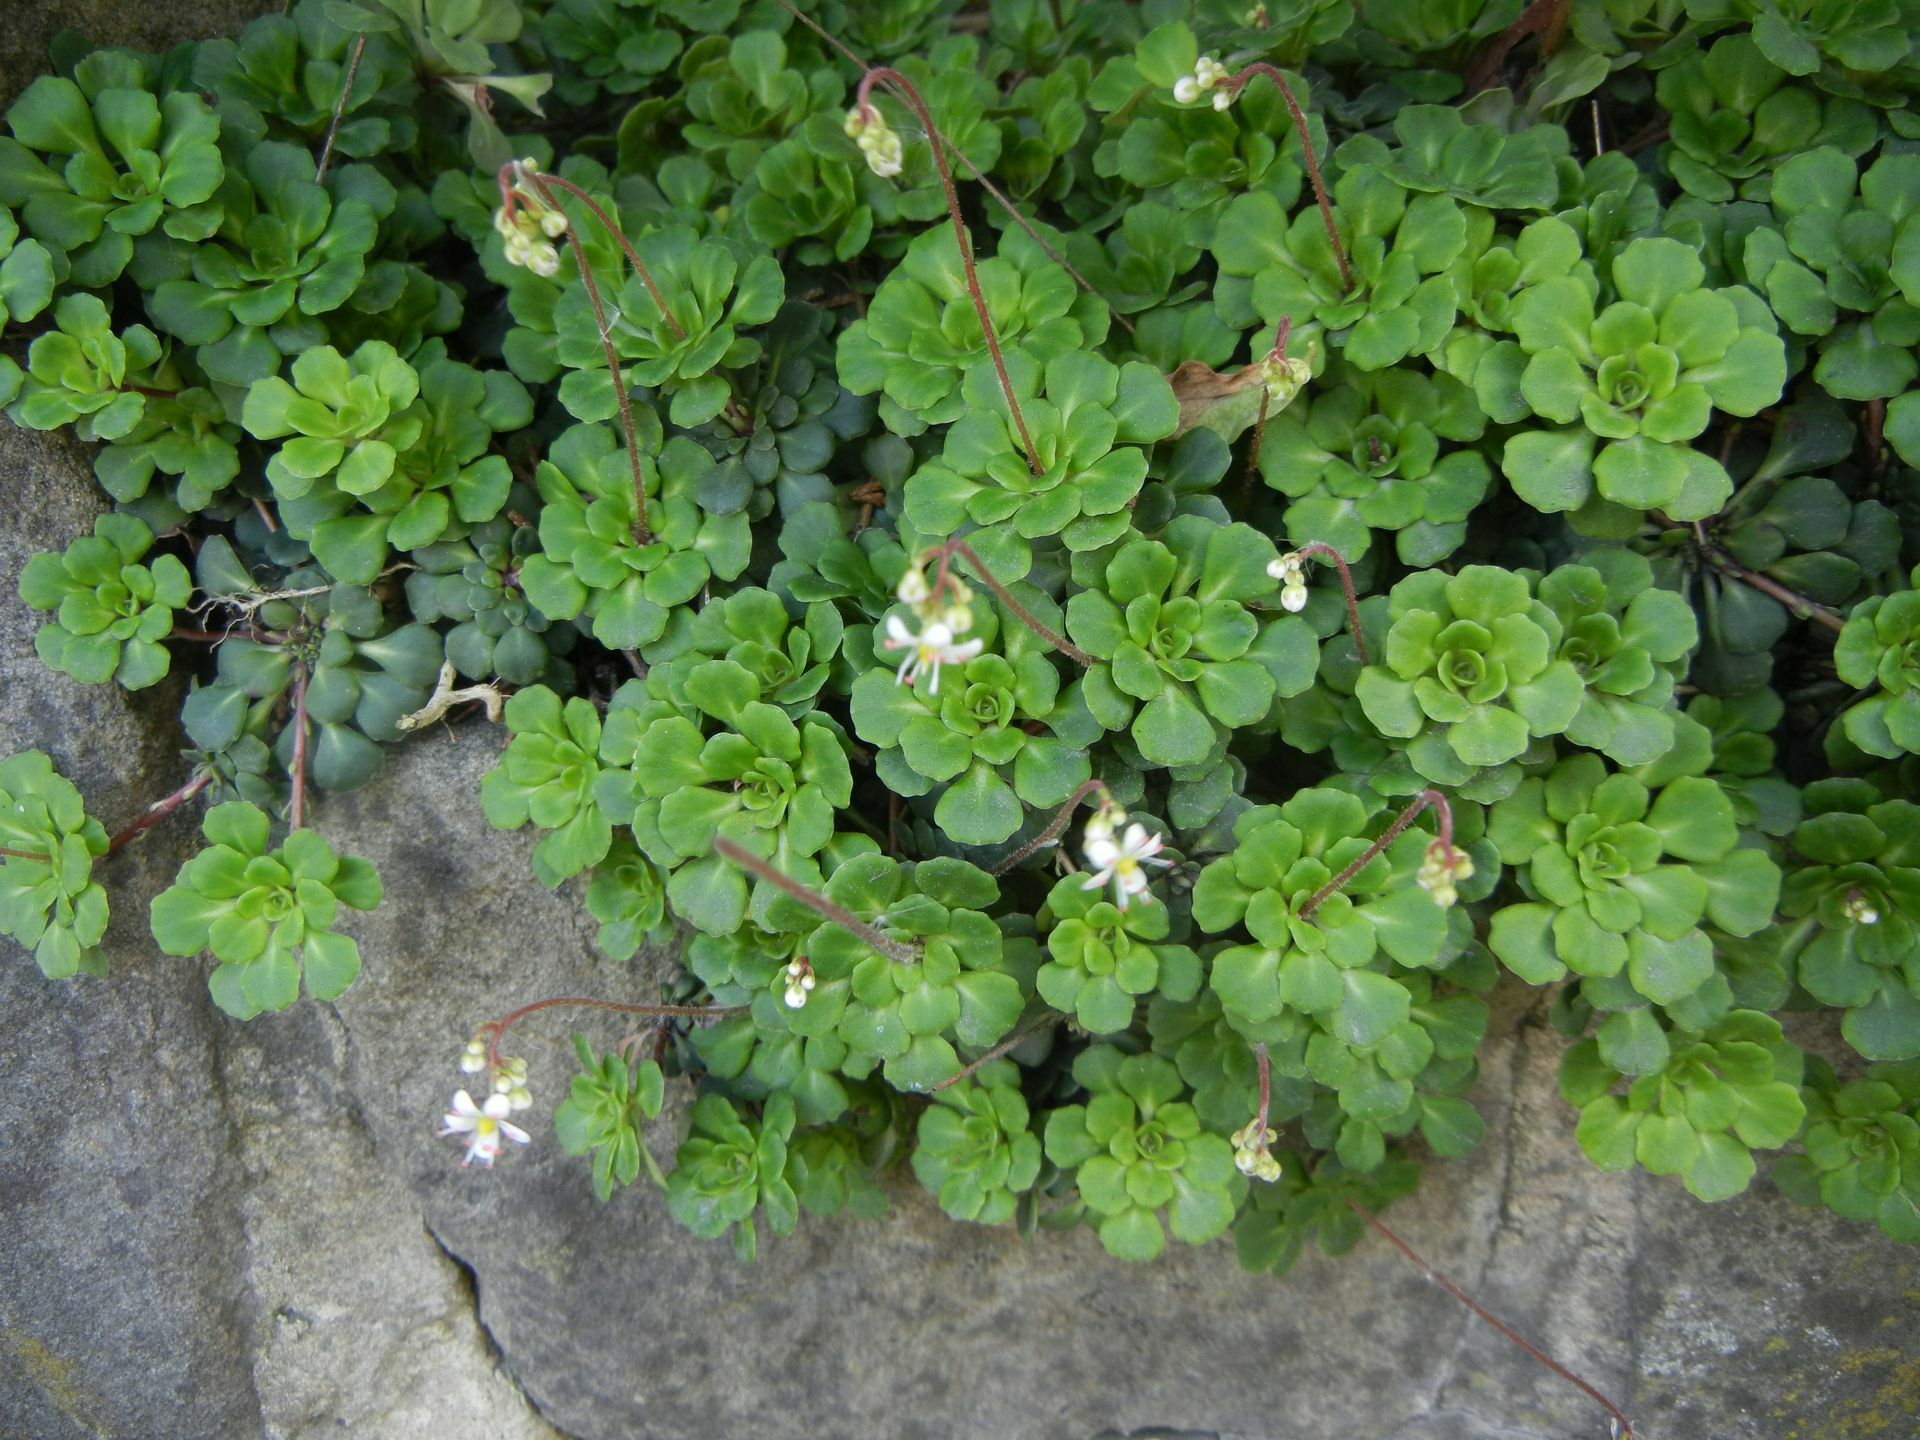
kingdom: Plantae
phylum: Tracheophyta
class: Magnoliopsida
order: Saxifragales
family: Saxifragaceae
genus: Saxifraga
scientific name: Saxifraga cuneifolia
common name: Lesser londonpride
